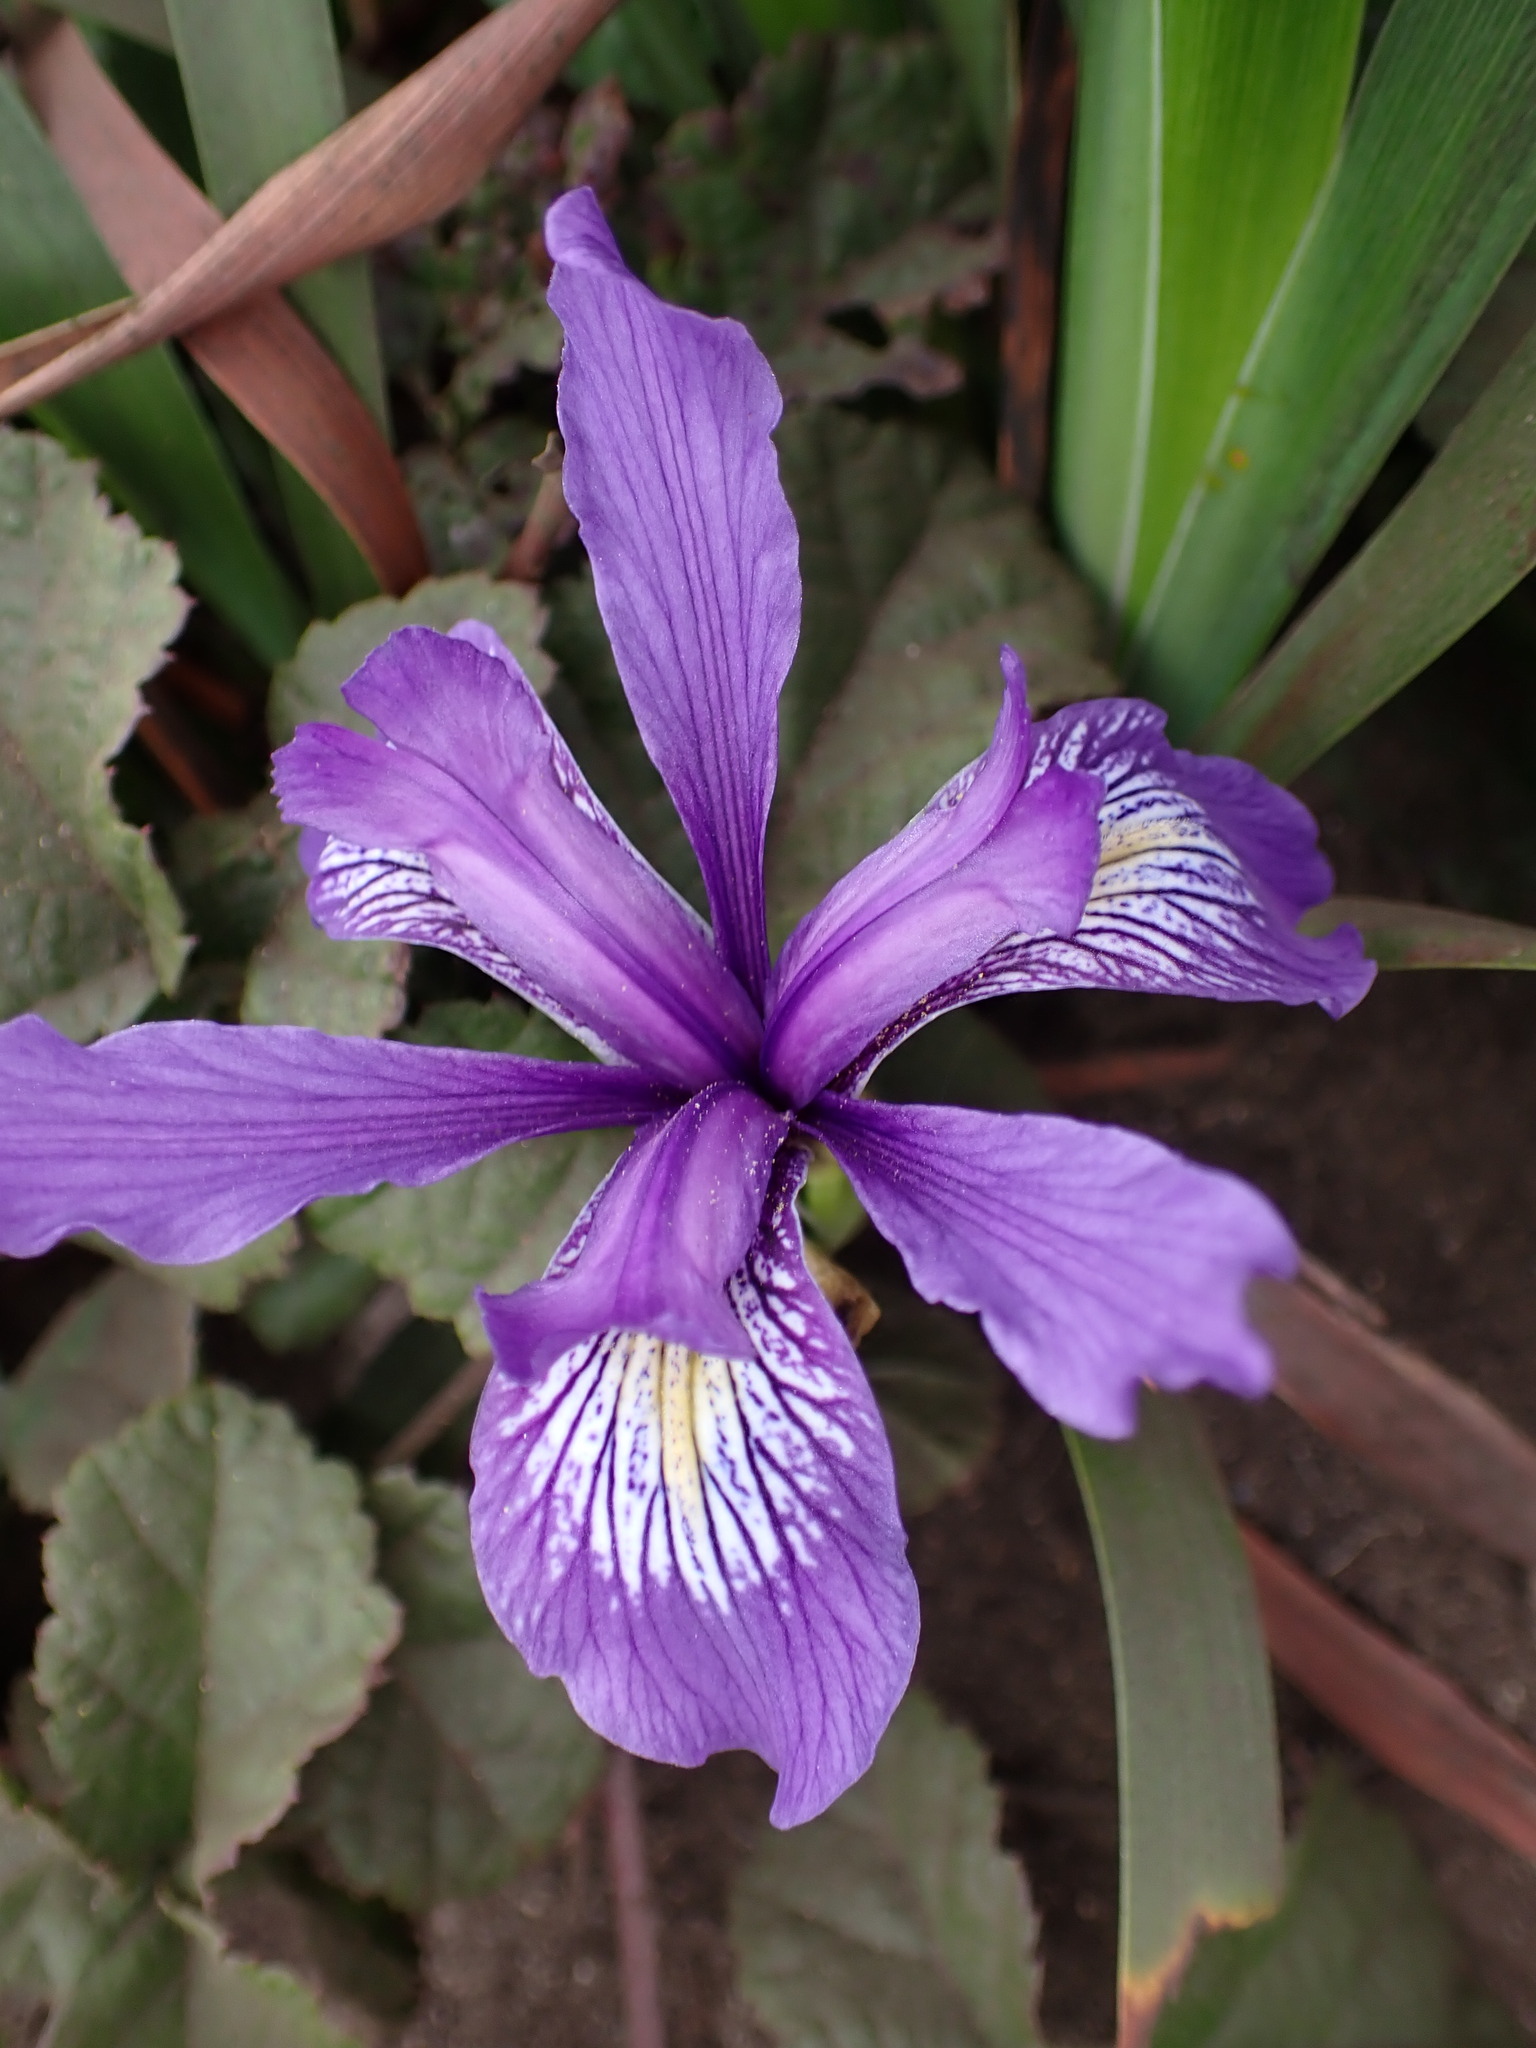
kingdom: Plantae
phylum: Tracheophyta
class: Liliopsida
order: Asparagales
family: Iridaceae
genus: Iris
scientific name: Iris douglasiana
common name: Marin iris
